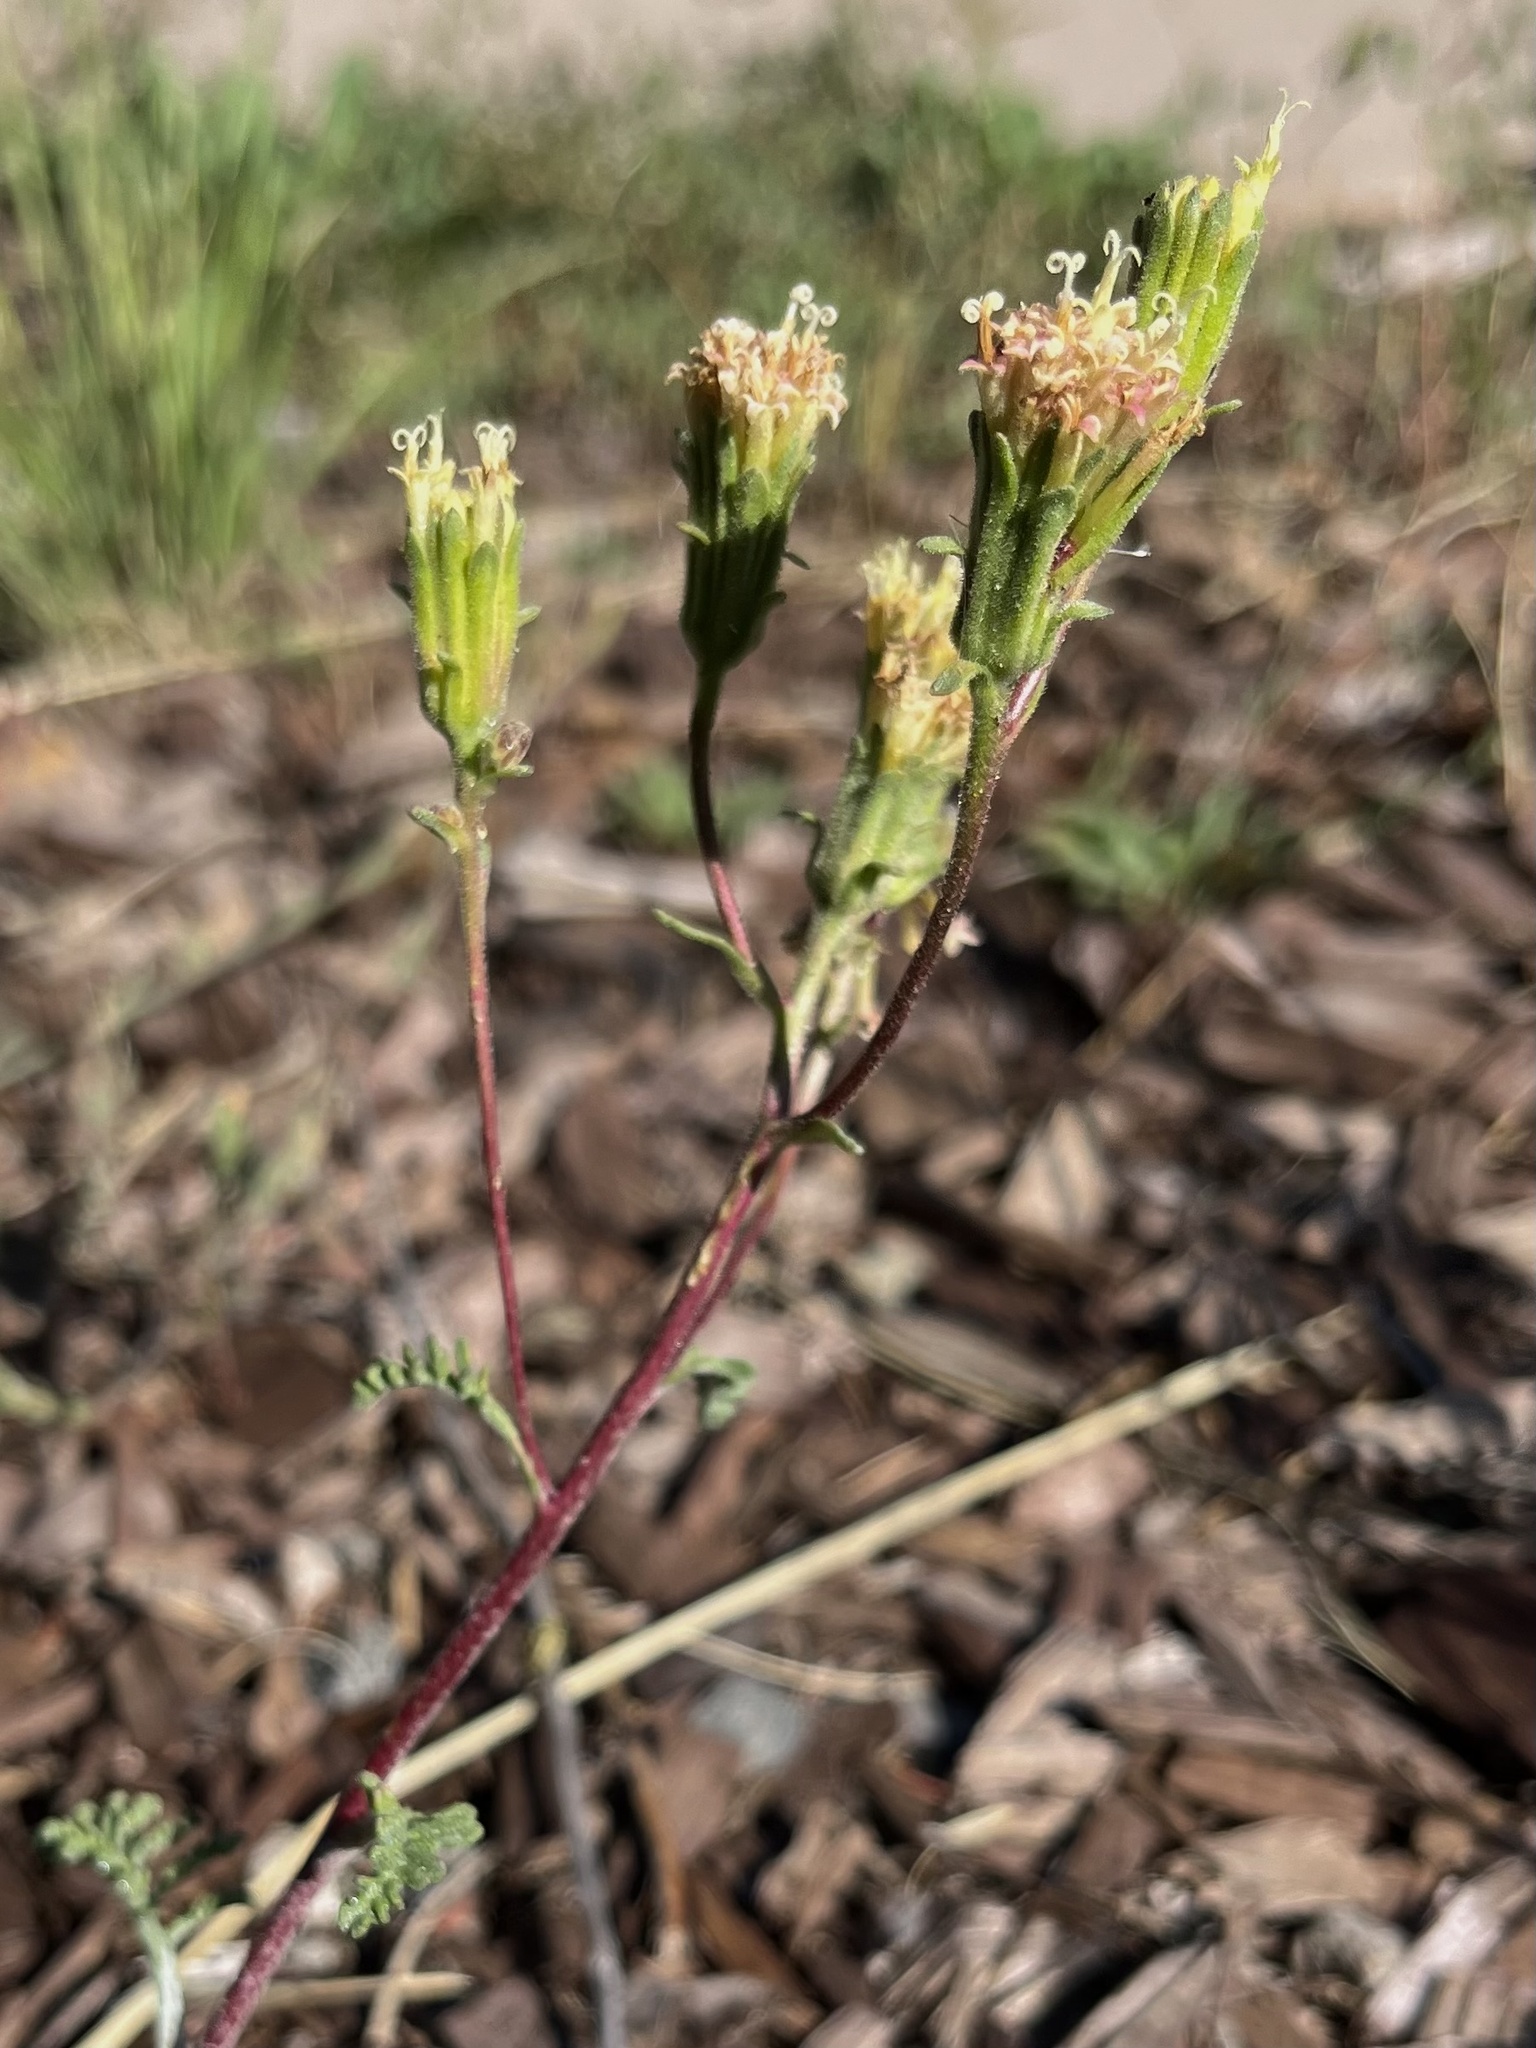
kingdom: Plantae
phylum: Tracheophyta
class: Magnoliopsida
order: Asterales
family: Asteraceae
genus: Chaenactis
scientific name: Chaenactis douglasii
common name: Hoary pincushion
